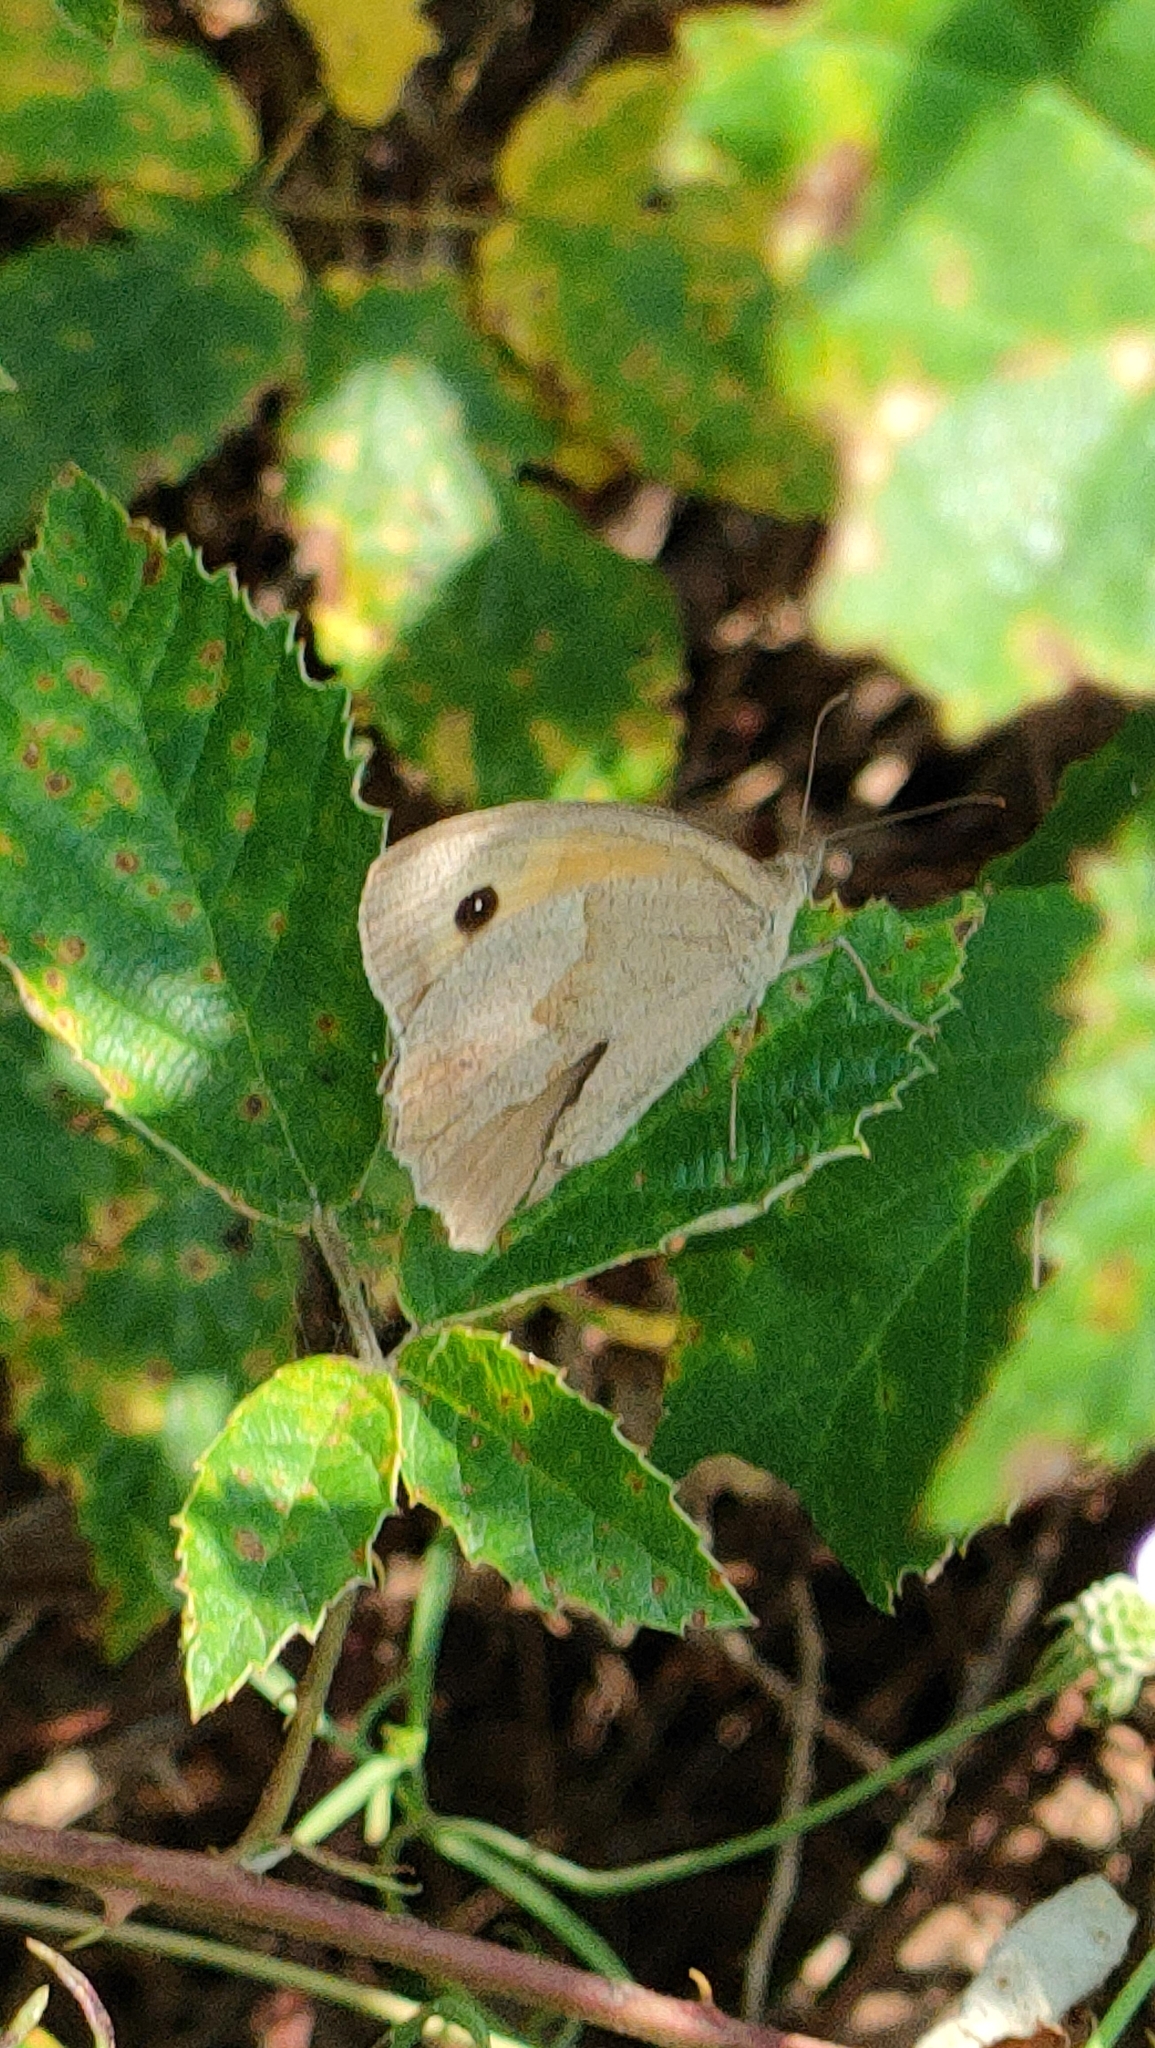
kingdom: Animalia
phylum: Arthropoda
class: Insecta
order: Lepidoptera
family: Nymphalidae
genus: Maniola
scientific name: Maniola jurtina
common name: Meadow brown
